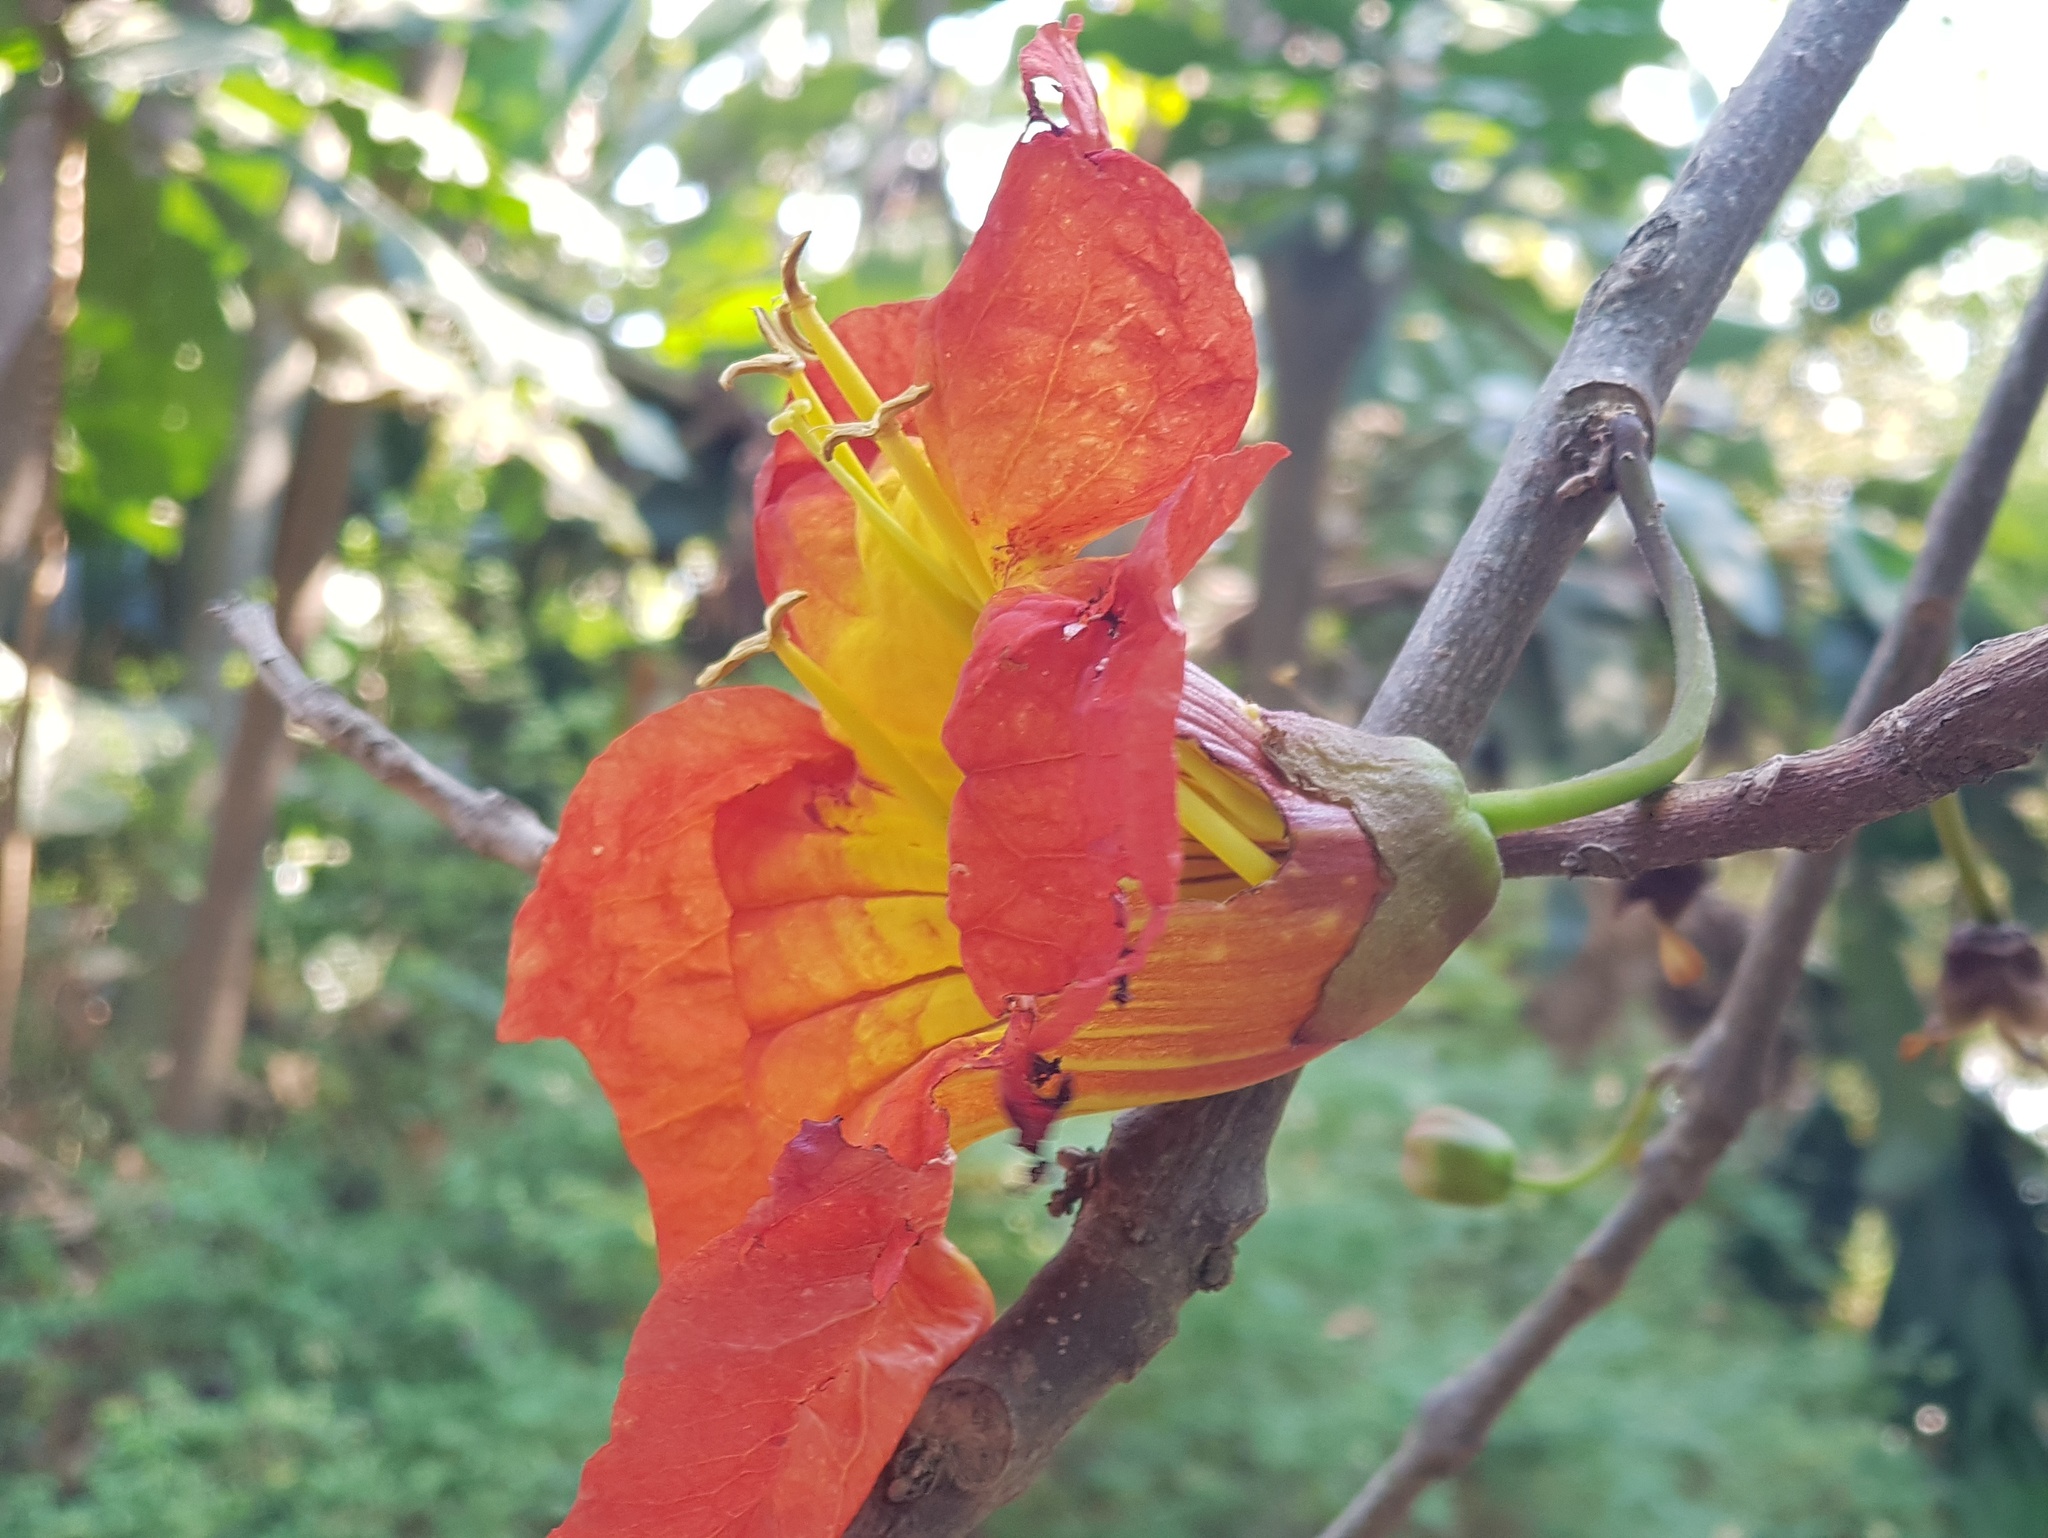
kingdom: Plantae
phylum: Tracheophyta
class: Magnoliopsida
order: Lamiales
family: Bignoniaceae
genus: Fernandoa
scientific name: Fernandoa magnifica
